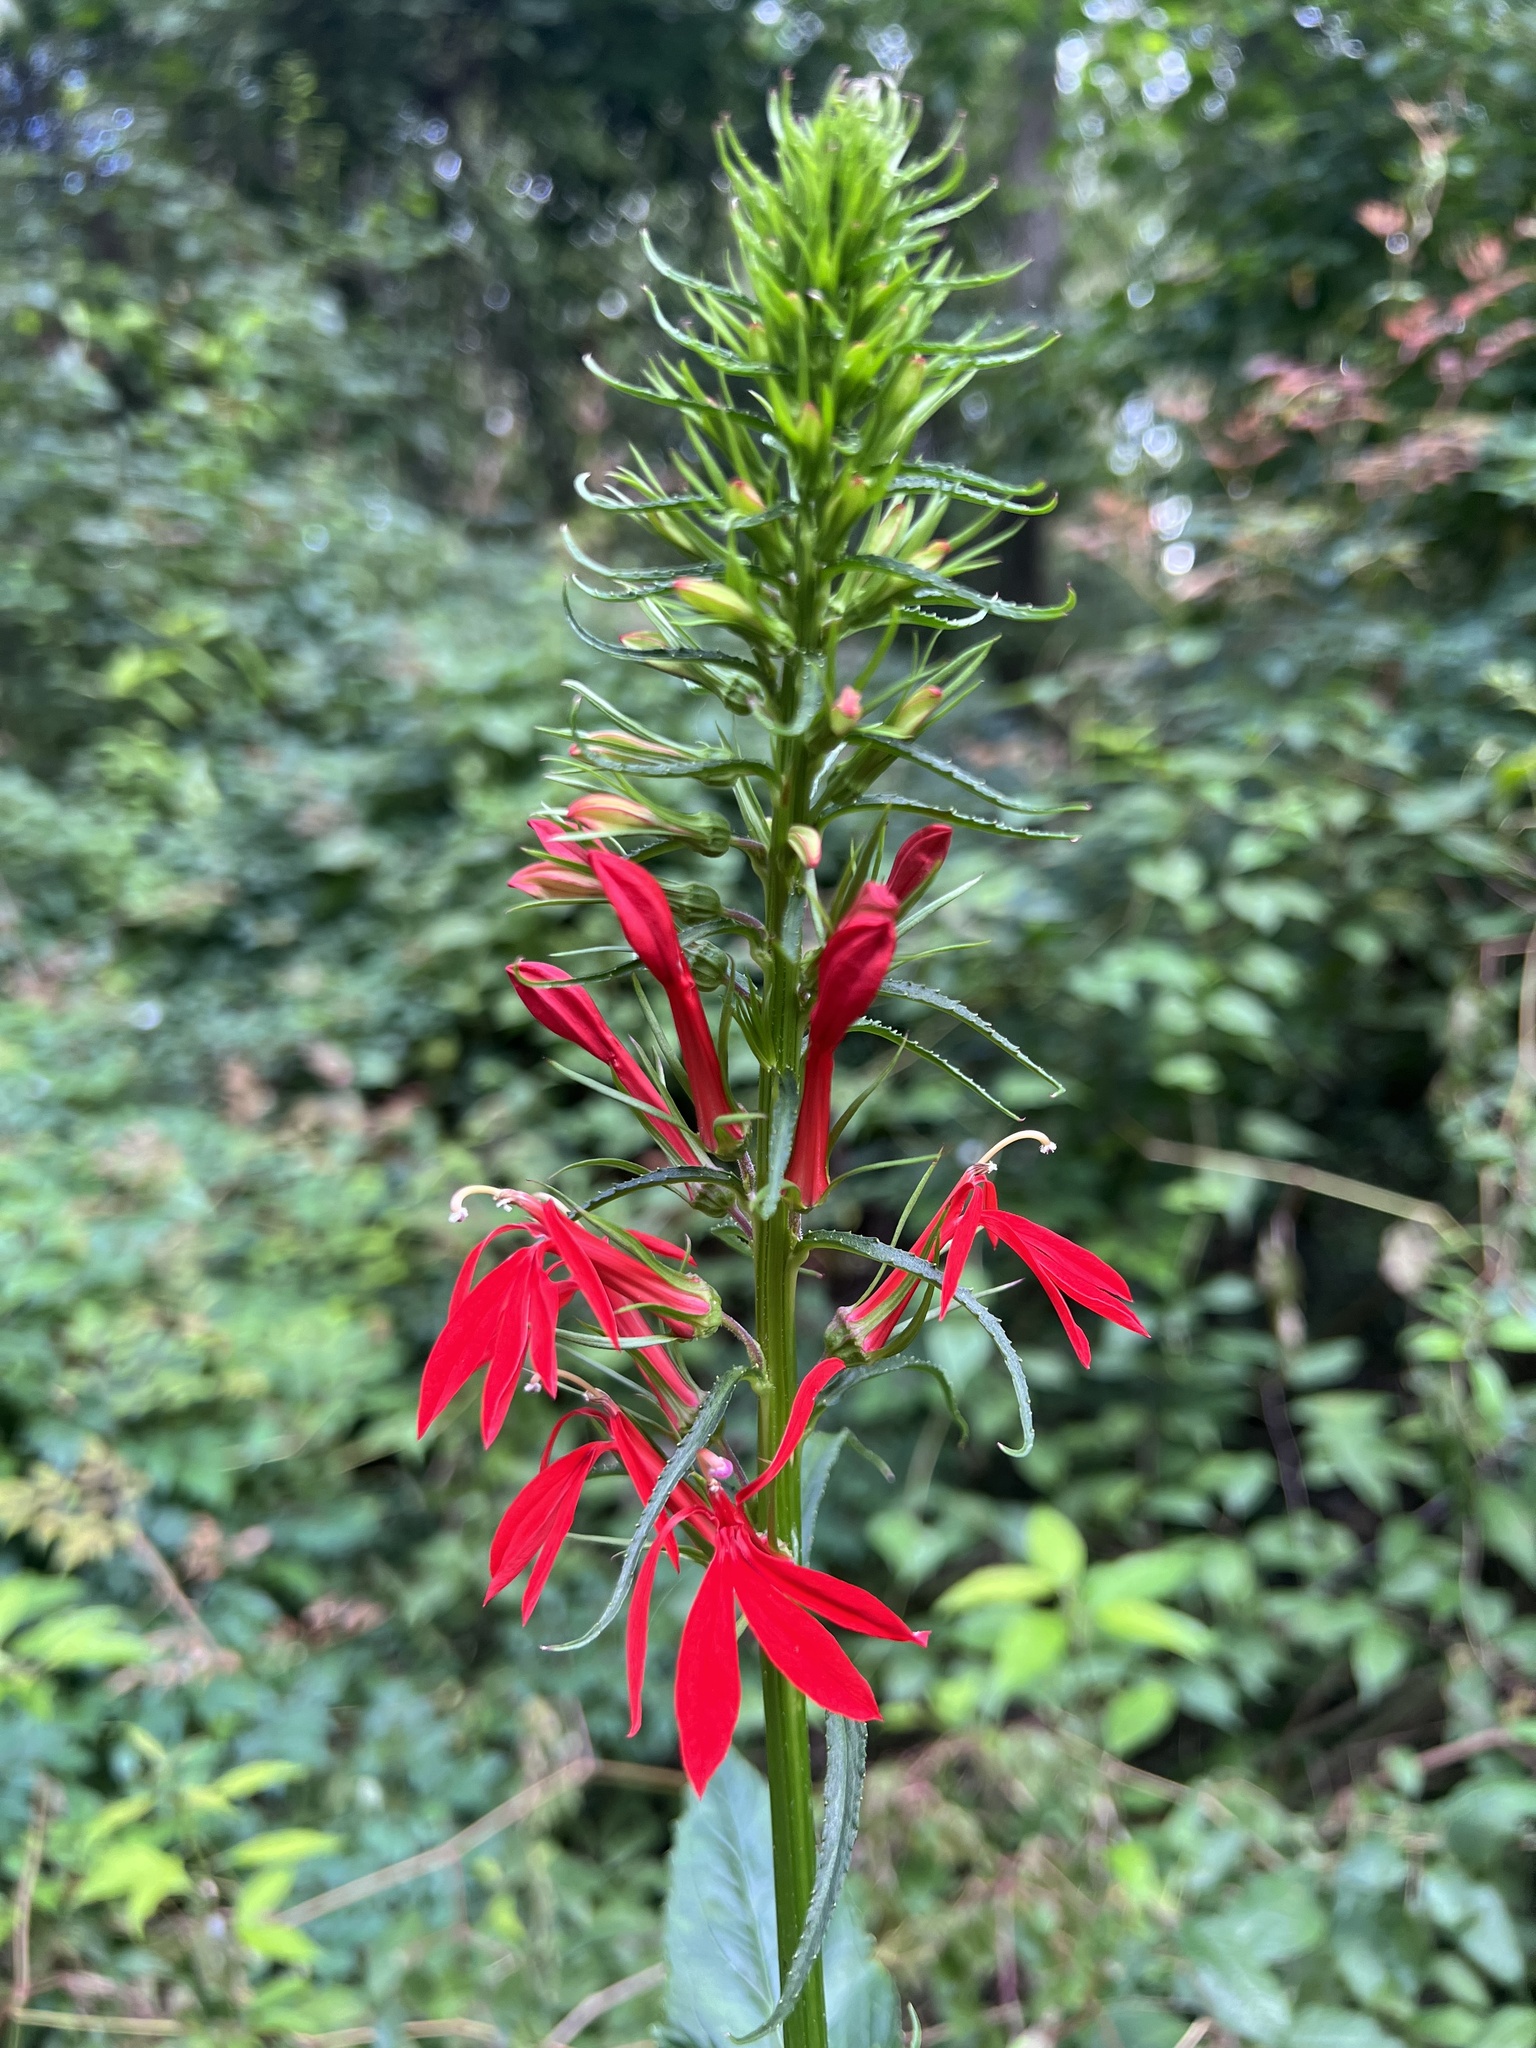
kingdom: Plantae
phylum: Tracheophyta
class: Magnoliopsida
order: Asterales
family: Campanulaceae
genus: Lobelia
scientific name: Lobelia cardinalis
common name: Cardinal flower
